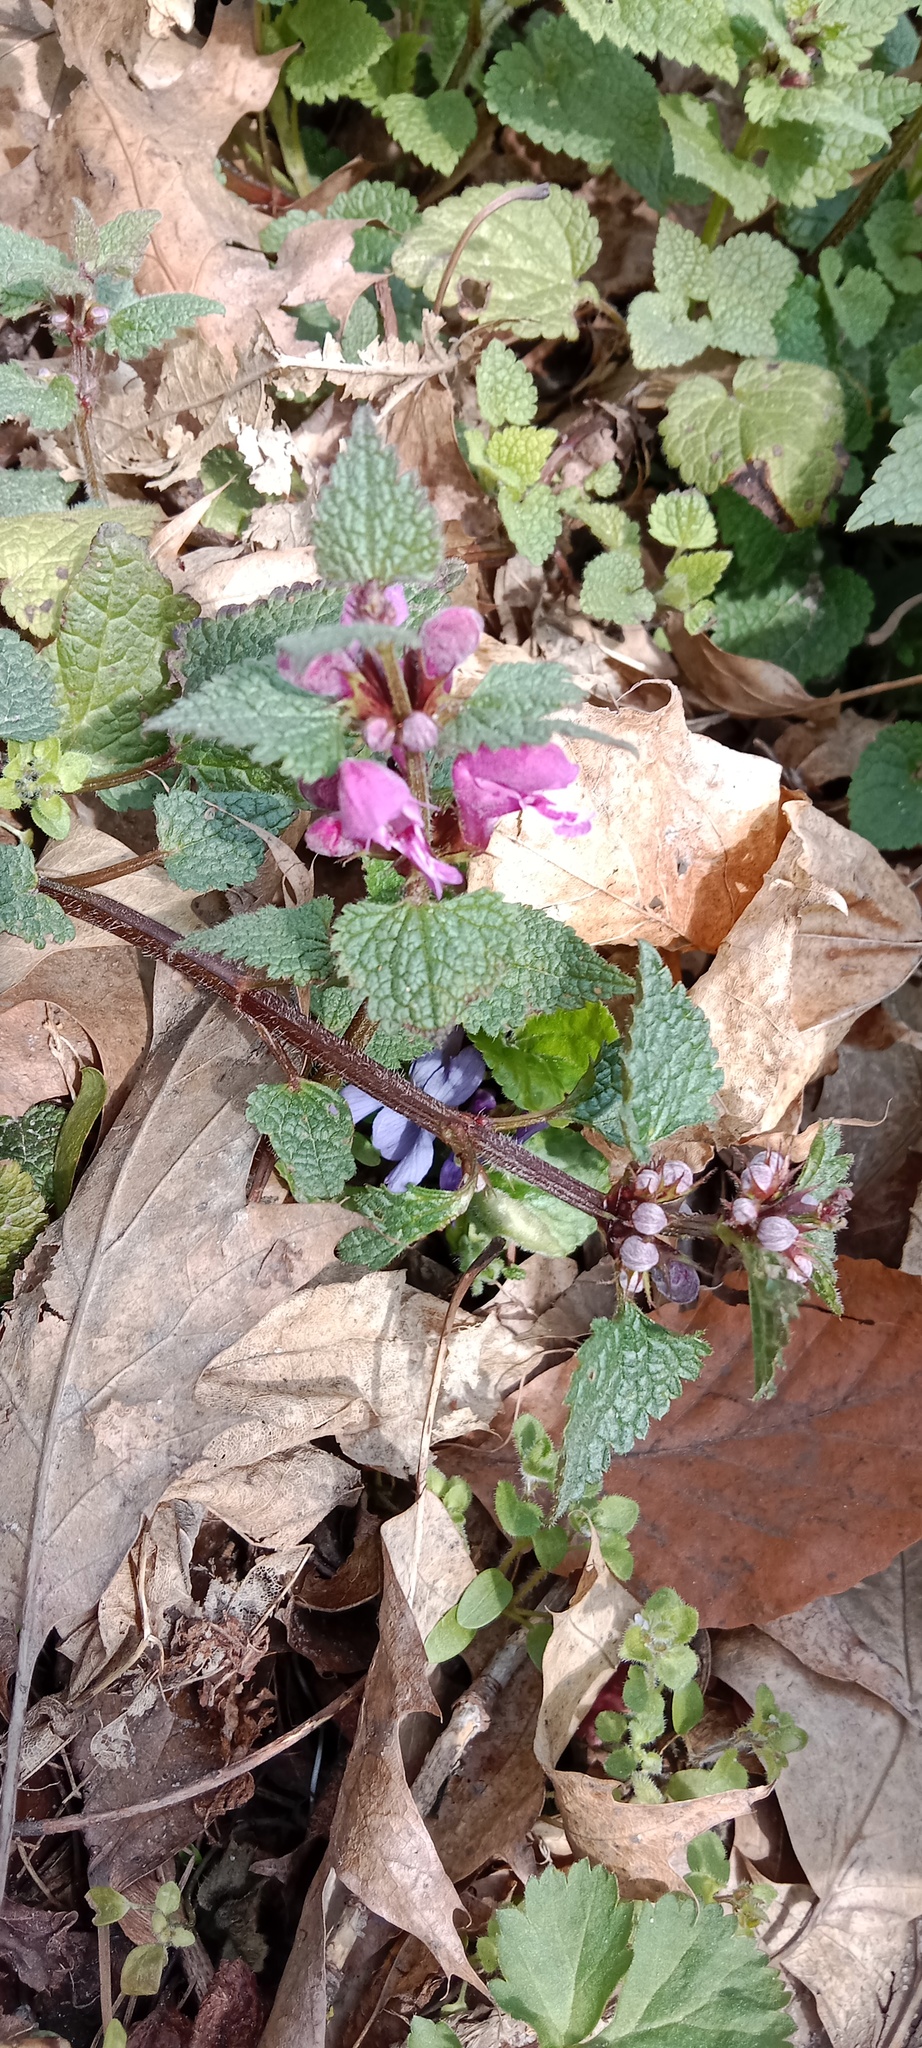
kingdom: Plantae
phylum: Tracheophyta
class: Magnoliopsida
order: Lamiales
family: Lamiaceae
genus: Lamium
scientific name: Lamium maculatum
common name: Spotted dead-nettle
